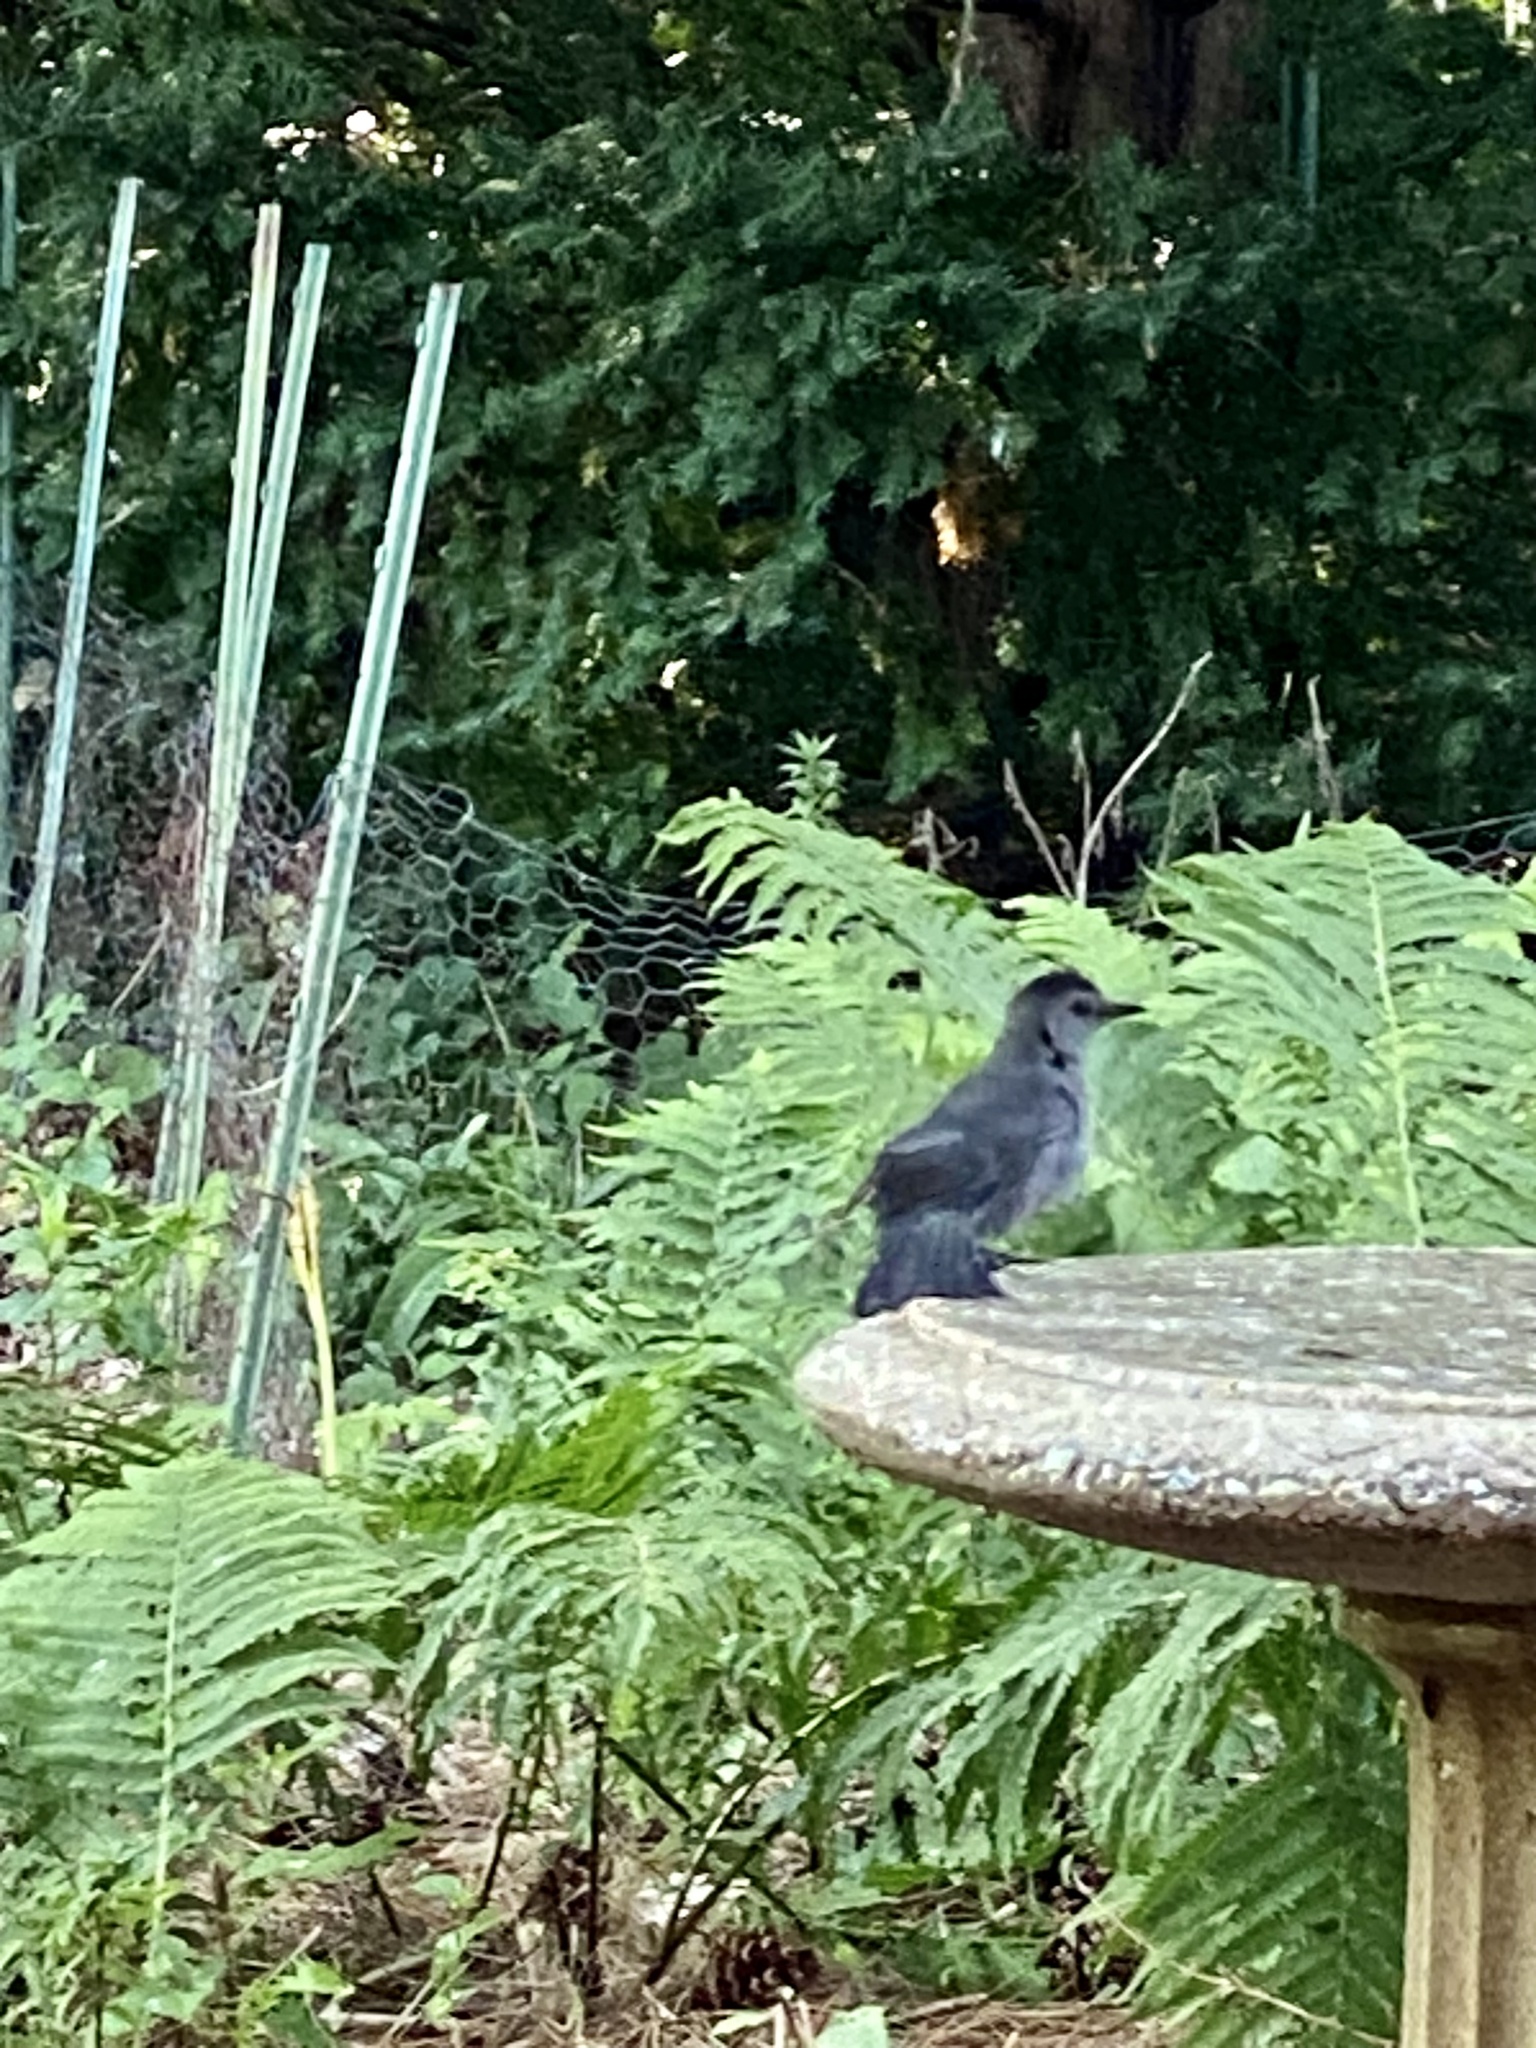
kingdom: Animalia
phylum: Chordata
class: Aves
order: Passeriformes
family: Mimidae
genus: Dumetella
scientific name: Dumetella carolinensis
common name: Gray catbird
